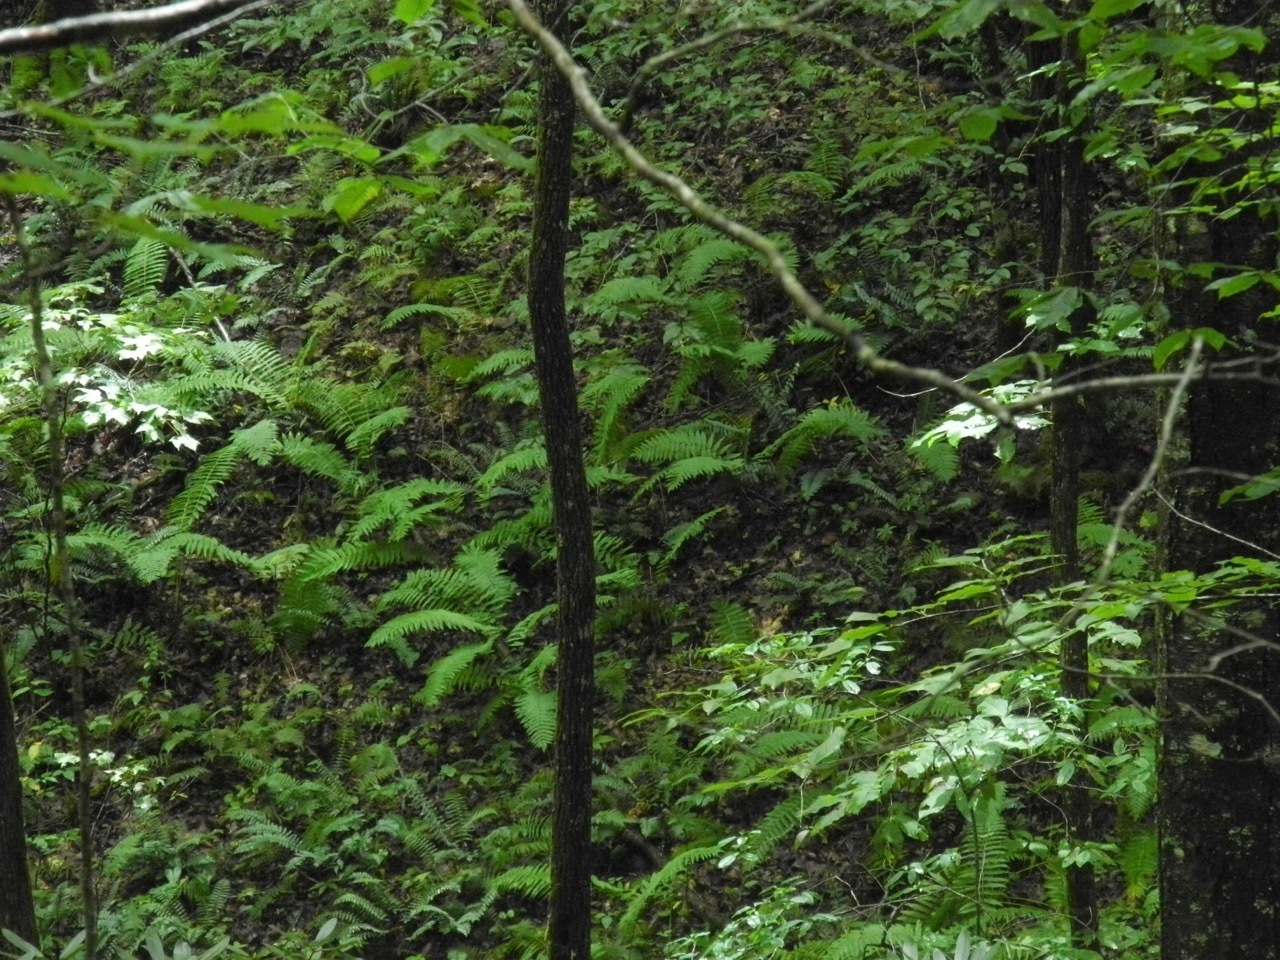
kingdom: Plantae
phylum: Tracheophyta
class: Polypodiopsida
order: Osmundales
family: Osmundaceae
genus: Osmundastrum
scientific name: Osmundastrum cinnamomeum
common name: Cinnamon fern
